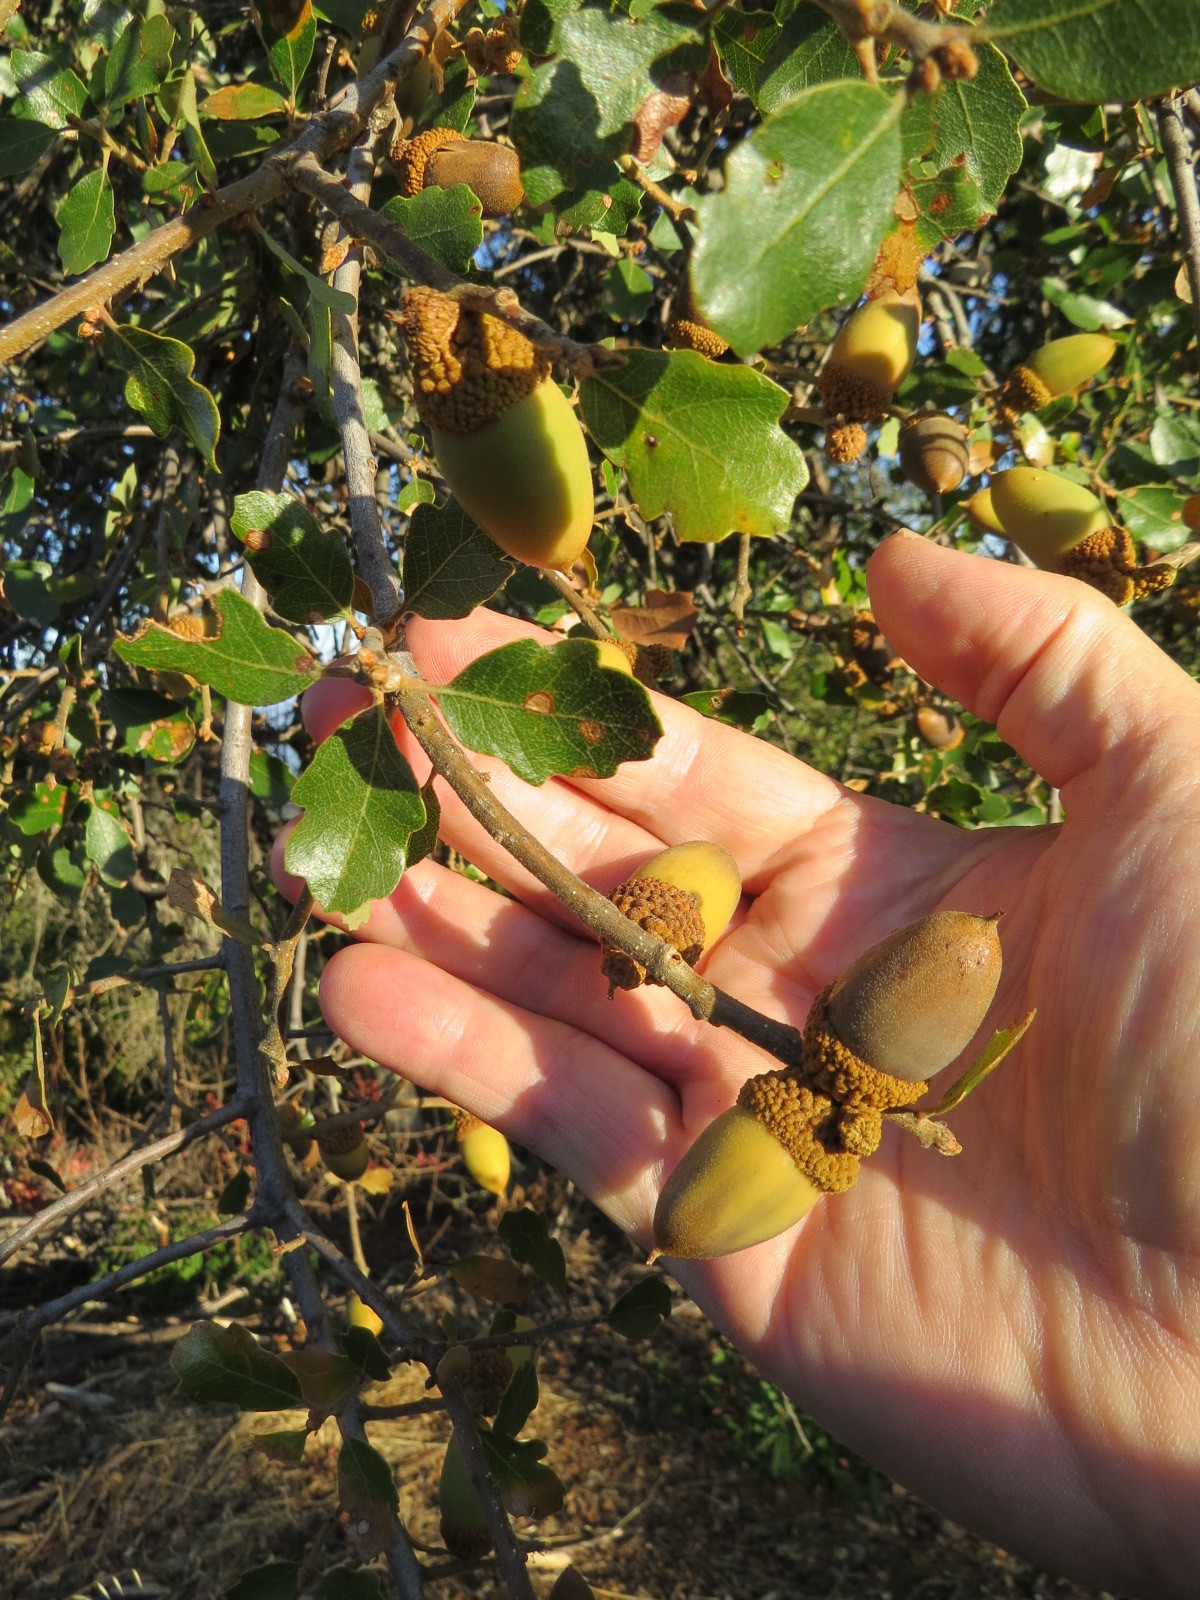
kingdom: Plantae
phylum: Tracheophyta
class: Magnoliopsida
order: Fagales
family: Fagaceae
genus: Quercus
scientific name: Quercus berberidifolia
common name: California scrub oak
